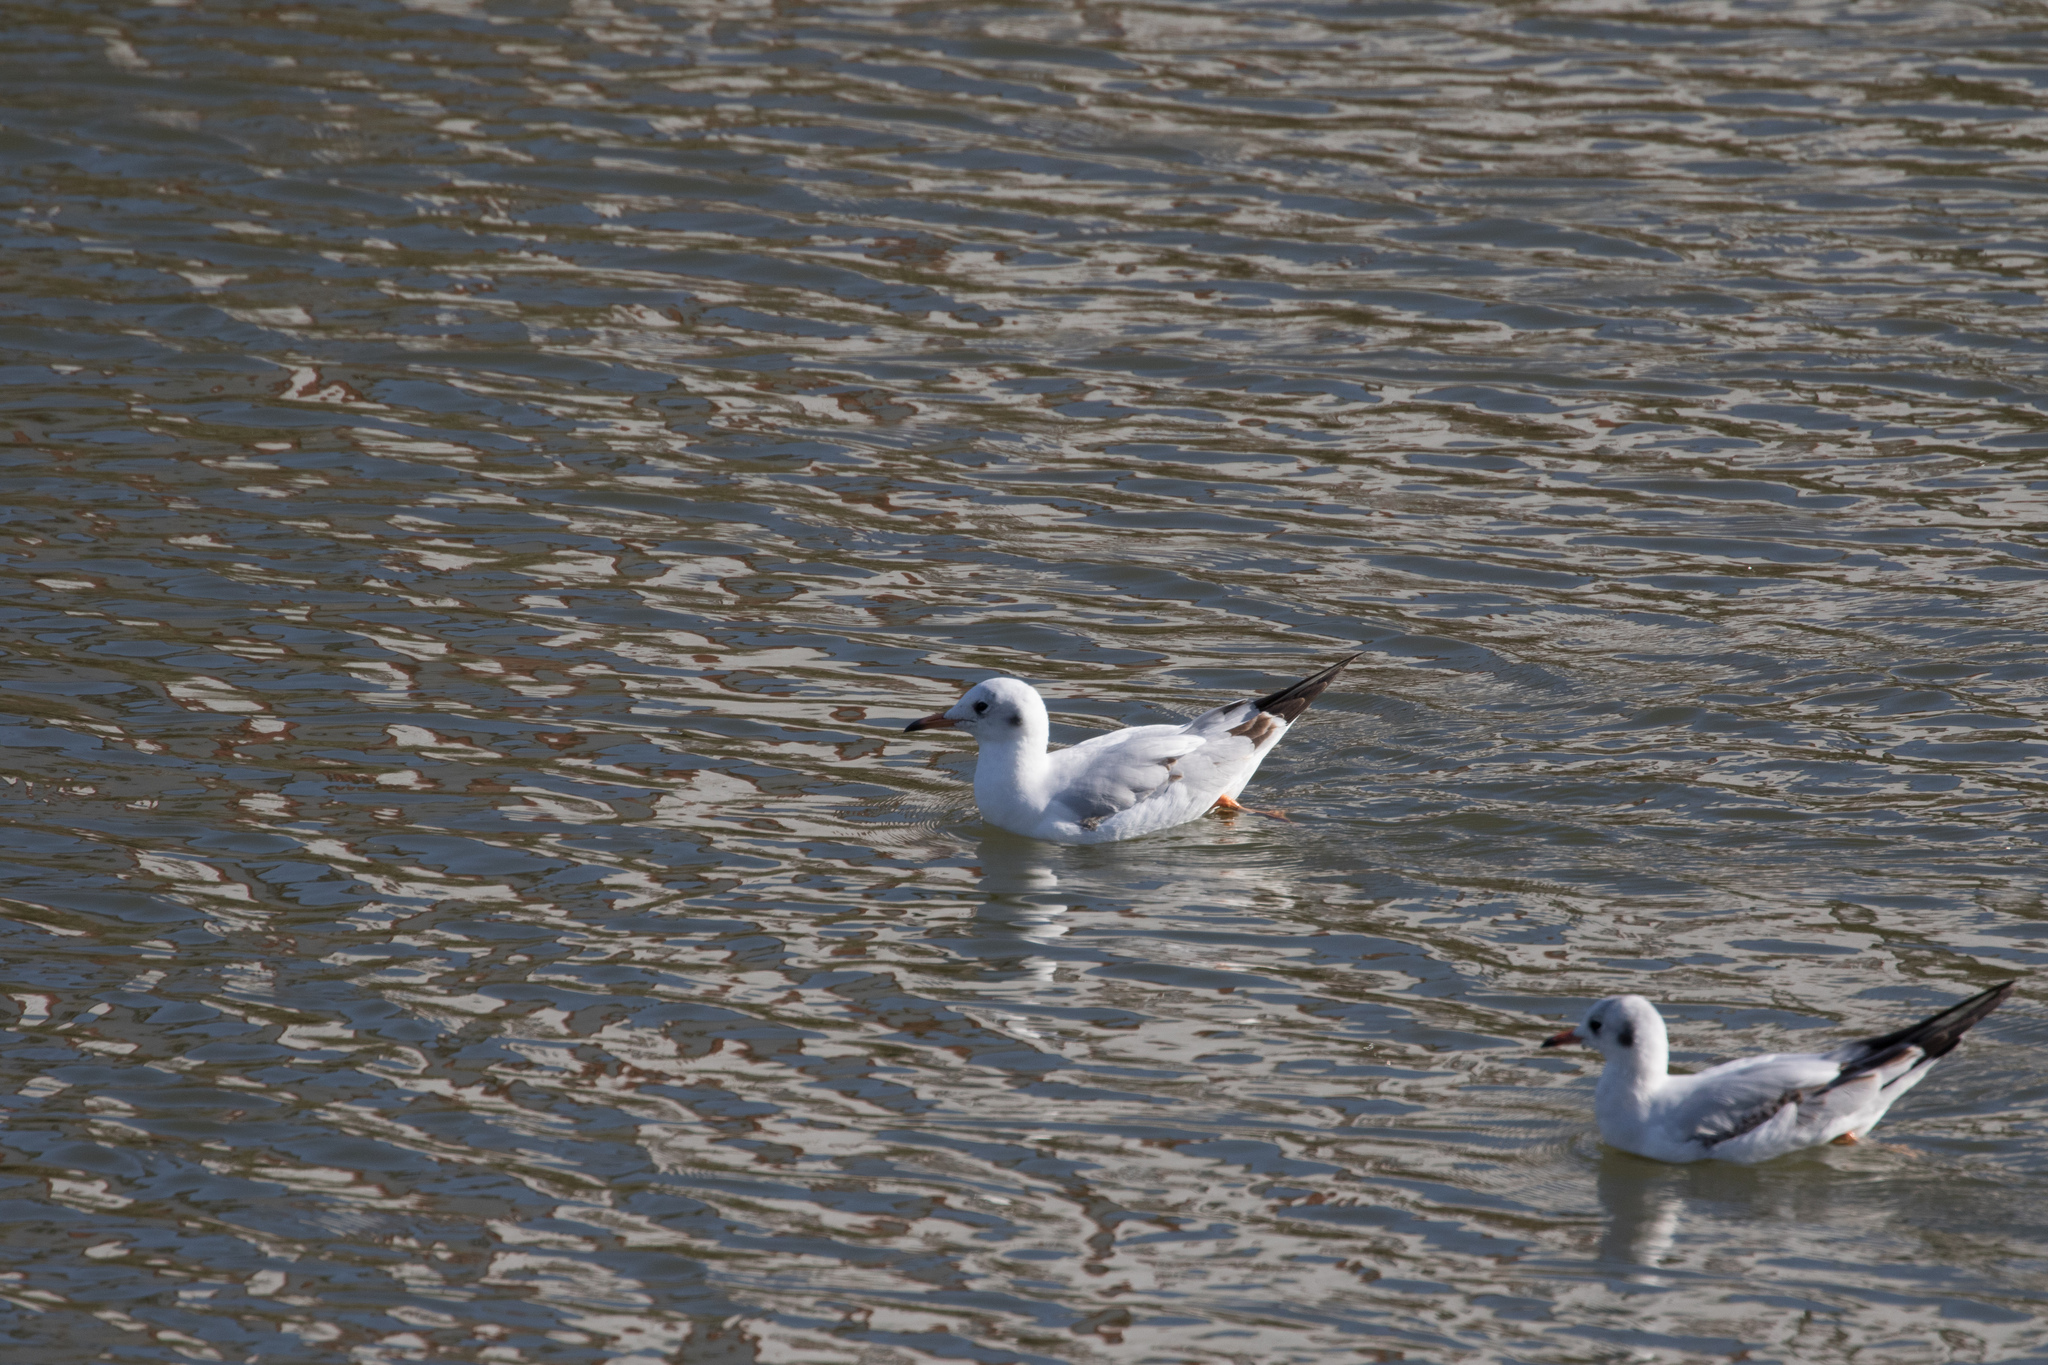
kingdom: Animalia
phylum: Chordata
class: Aves
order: Charadriiformes
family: Laridae
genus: Chroicocephalus
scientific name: Chroicocephalus ridibundus
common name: Black-headed gull
